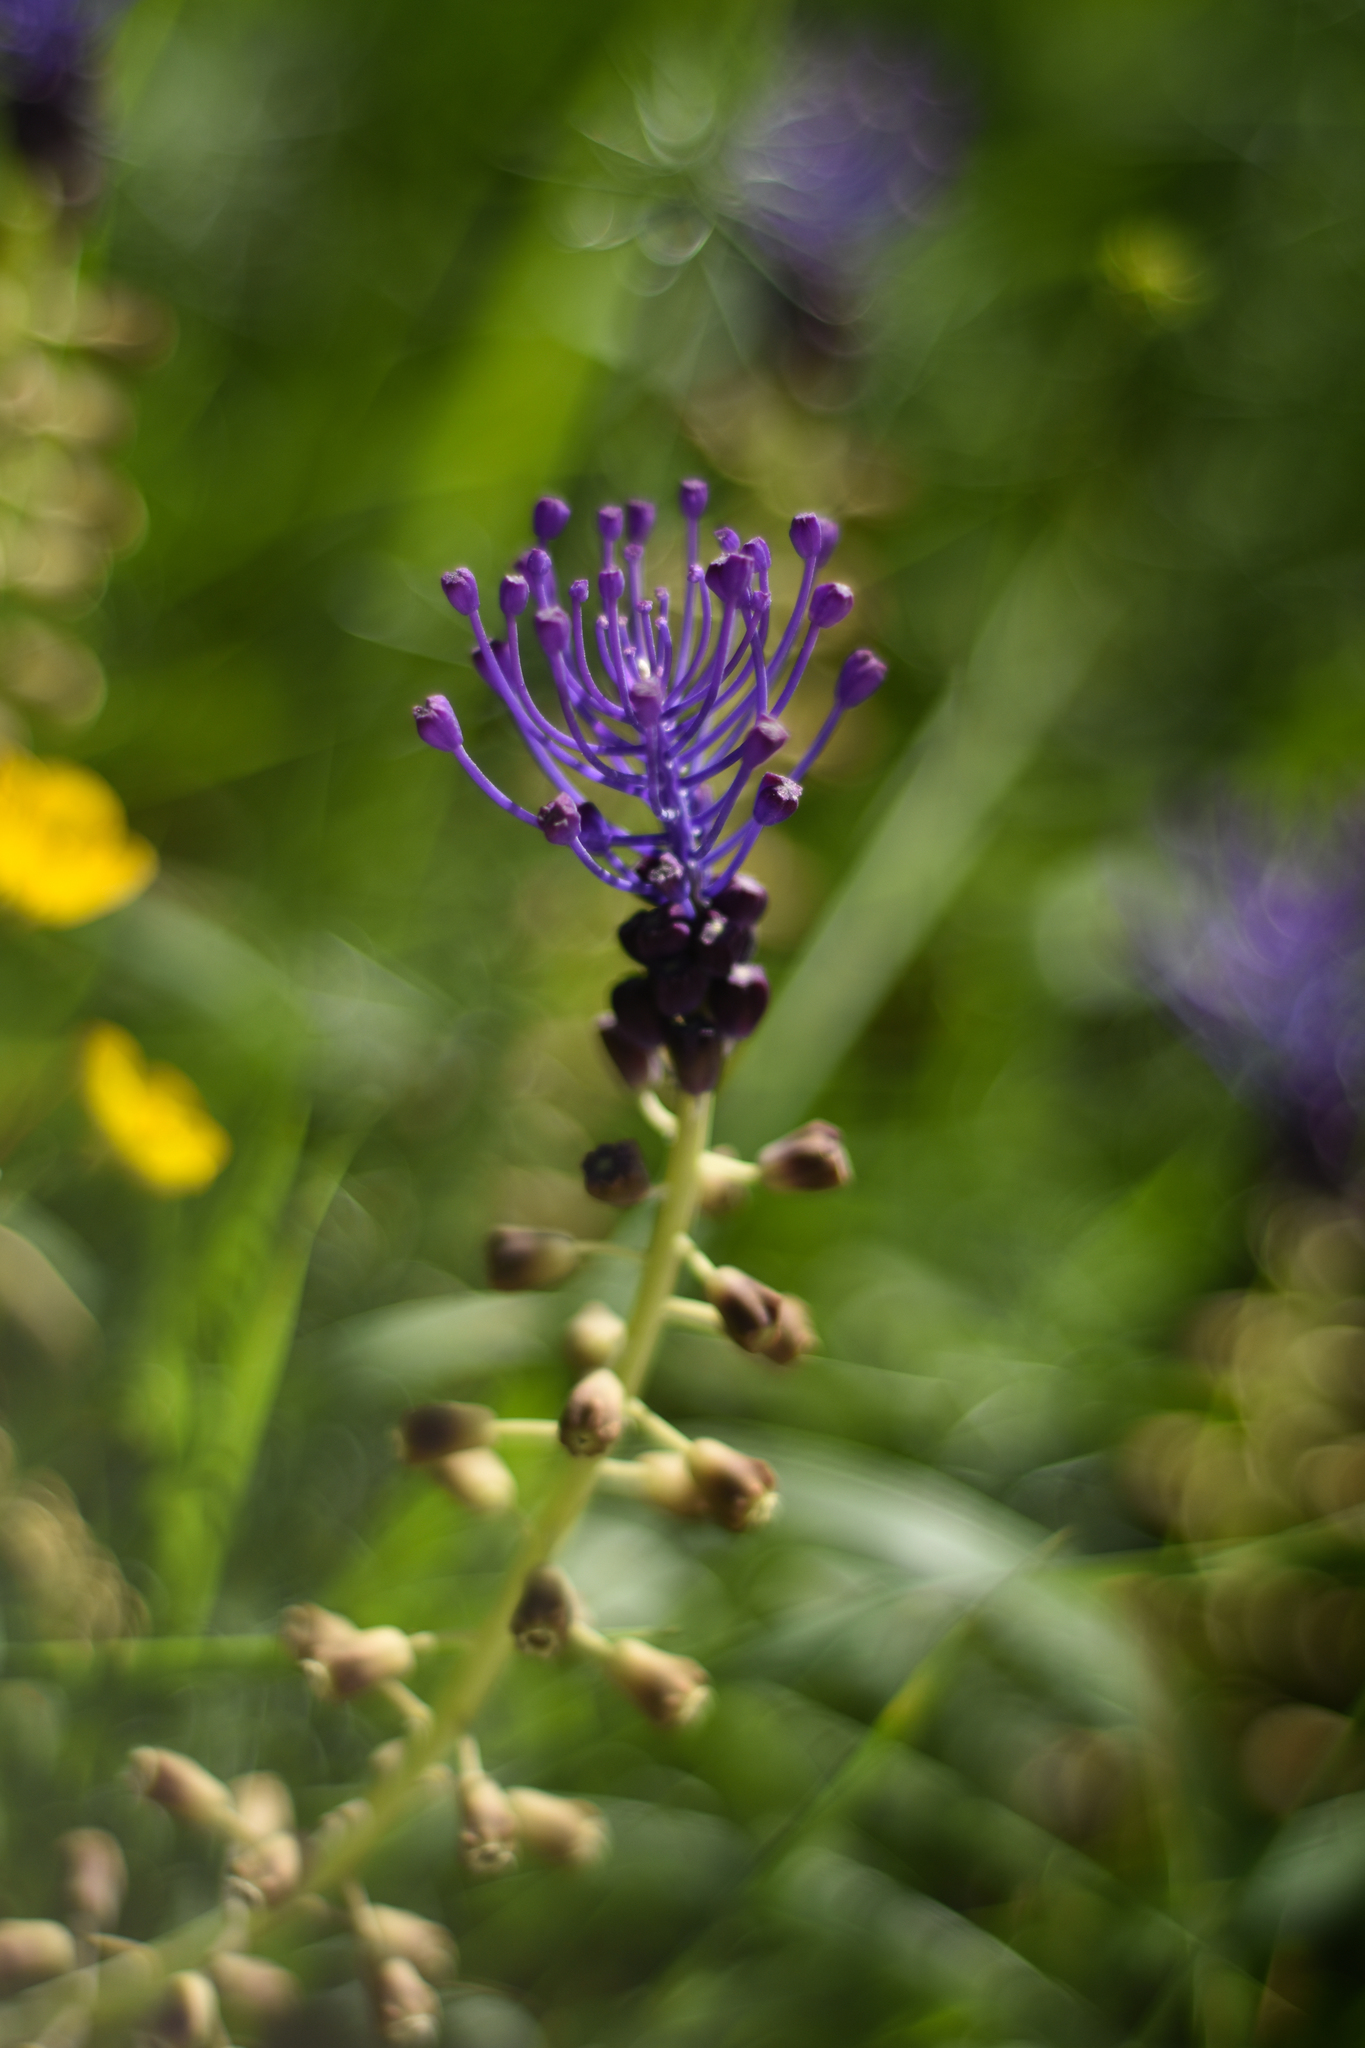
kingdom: Plantae
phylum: Tracheophyta
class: Liliopsida
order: Asparagales
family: Asparagaceae
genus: Muscari
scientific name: Muscari comosum
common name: Tassel hyacinth
